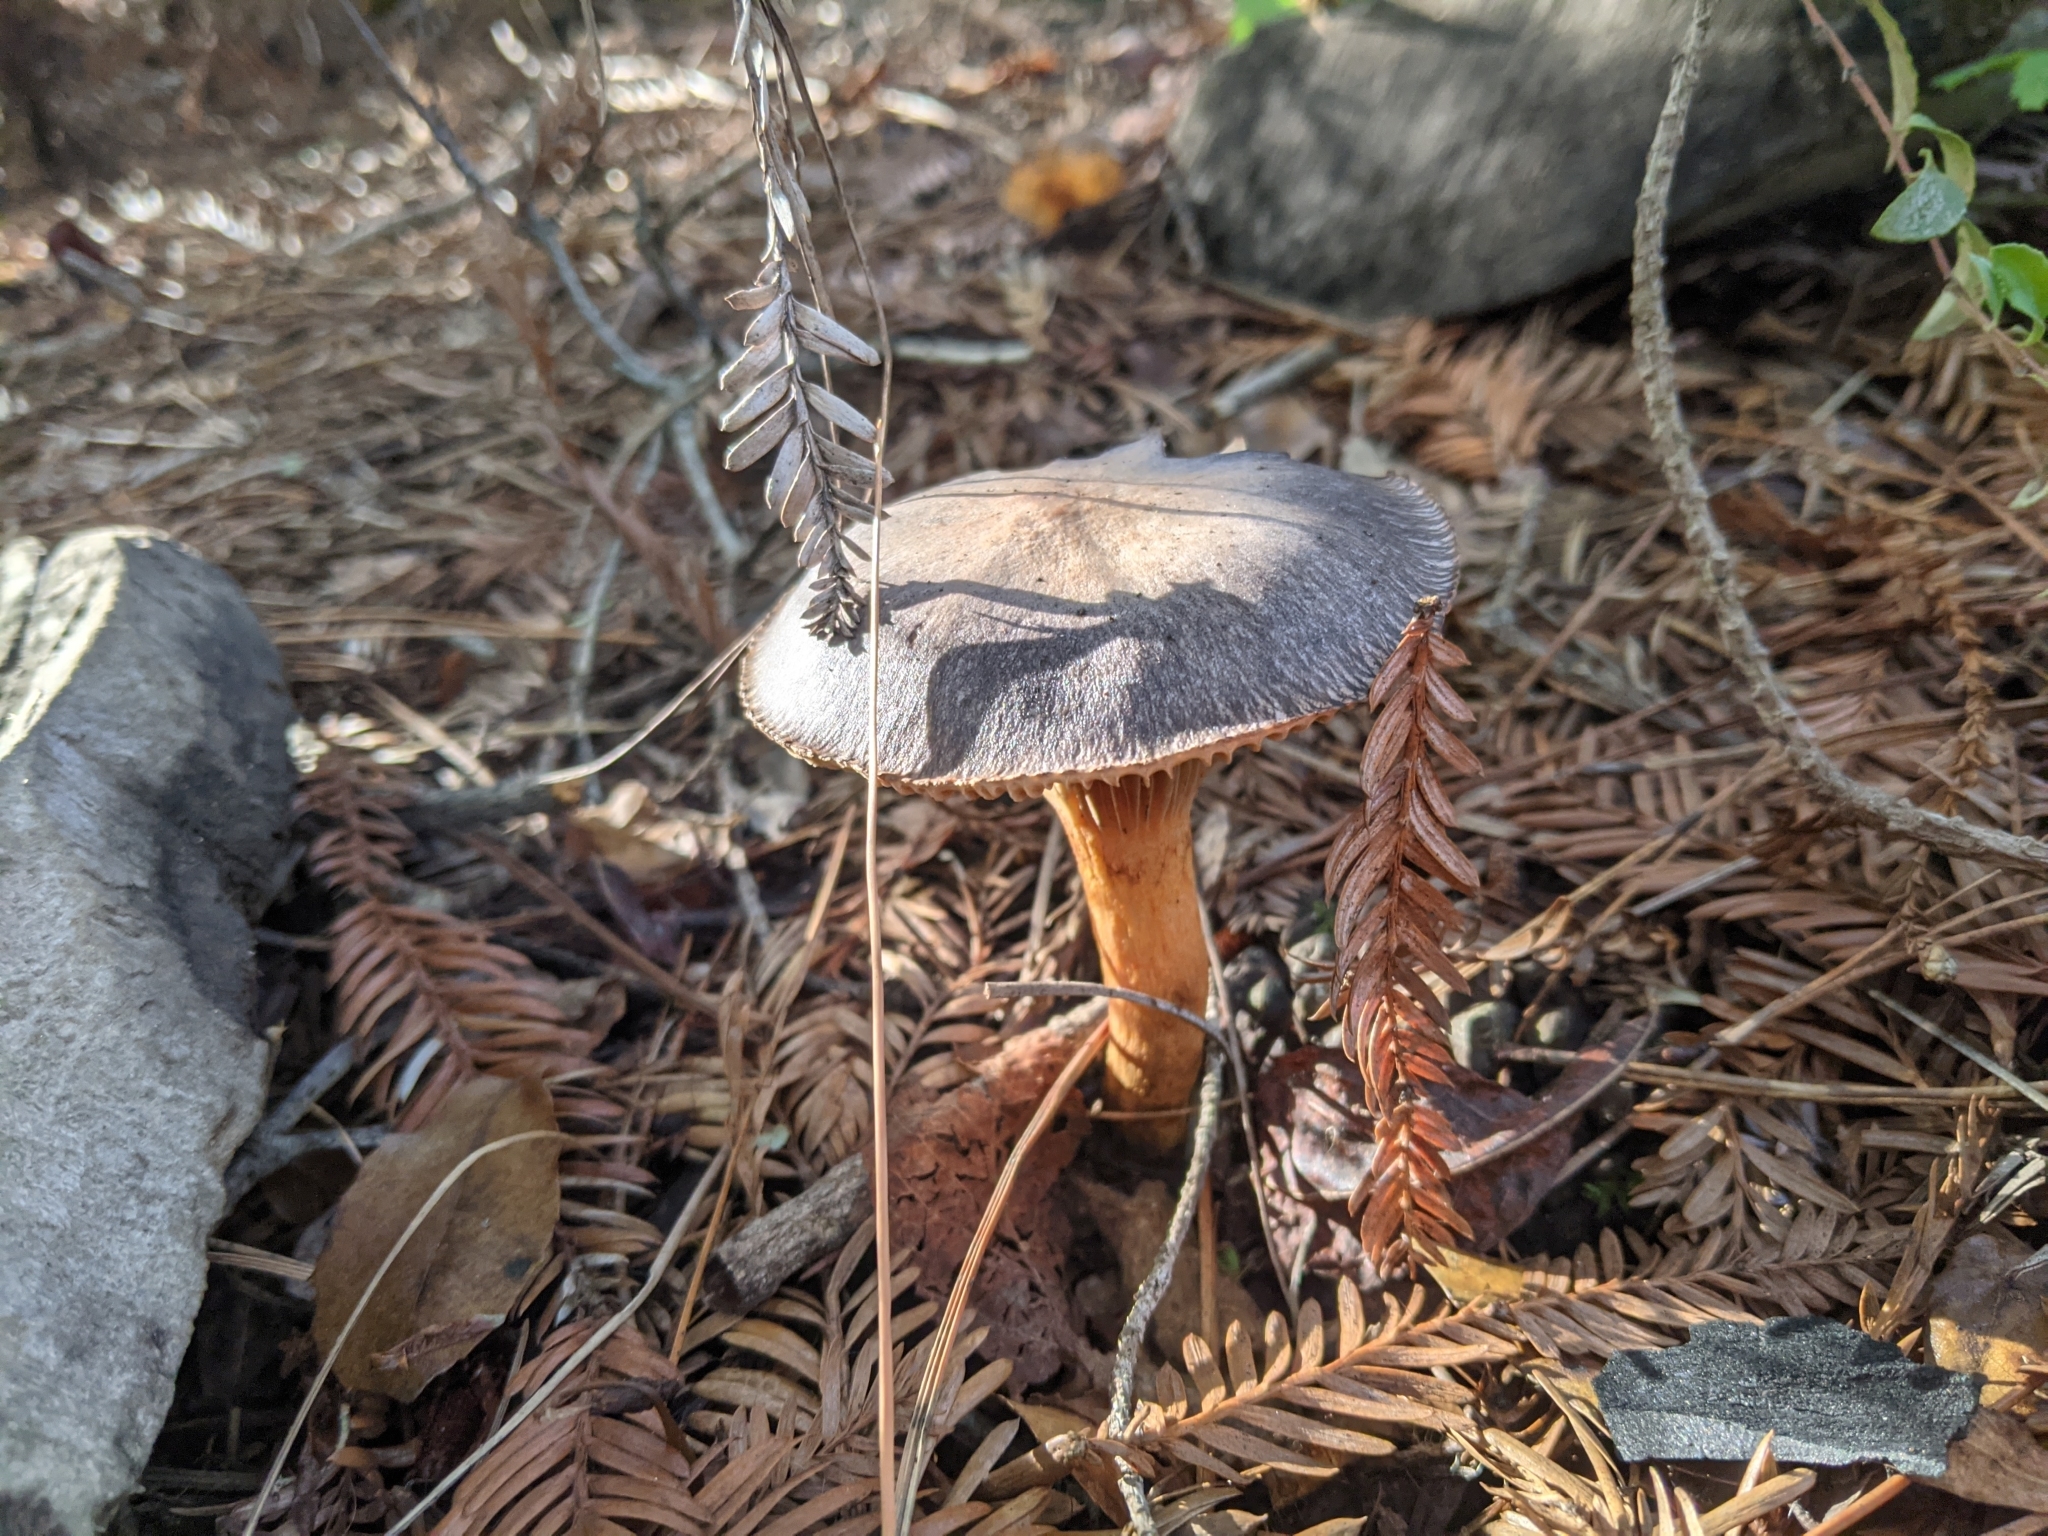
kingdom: Fungi
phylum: Basidiomycota
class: Agaricomycetes
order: Boletales
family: Gomphidiaceae
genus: Chroogomphus
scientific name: Chroogomphus vinicolor
